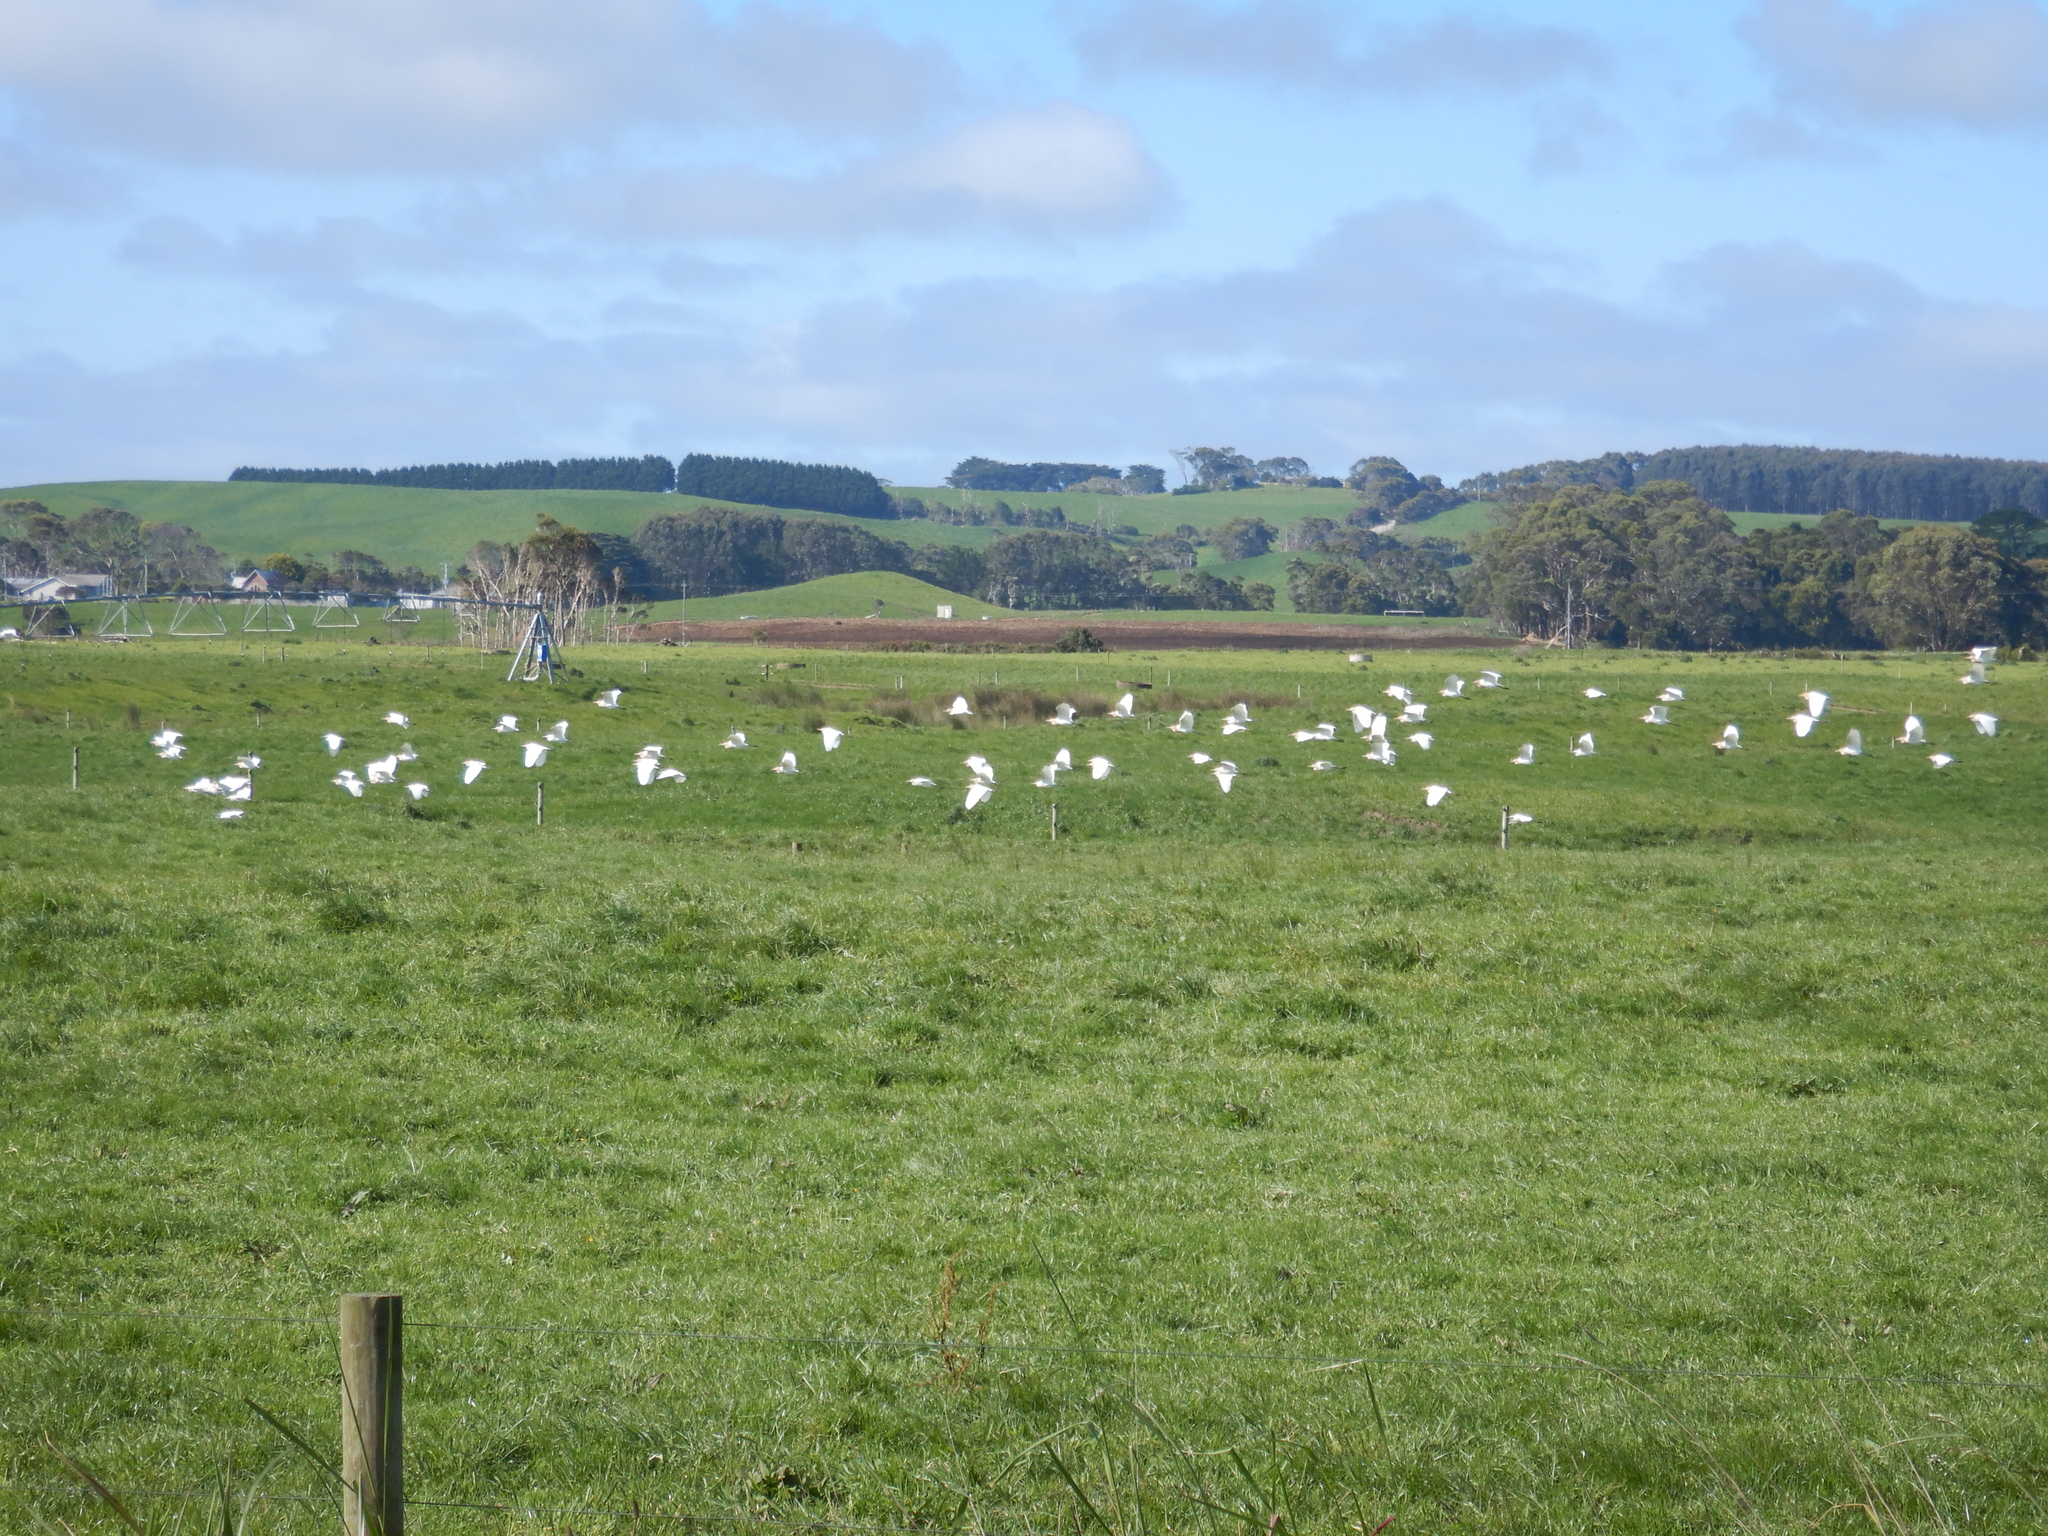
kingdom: Animalia
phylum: Chordata
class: Aves
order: Pelecaniformes
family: Ardeidae
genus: Bubulcus
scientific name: Bubulcus coromandus
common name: Eastern cattle egret
